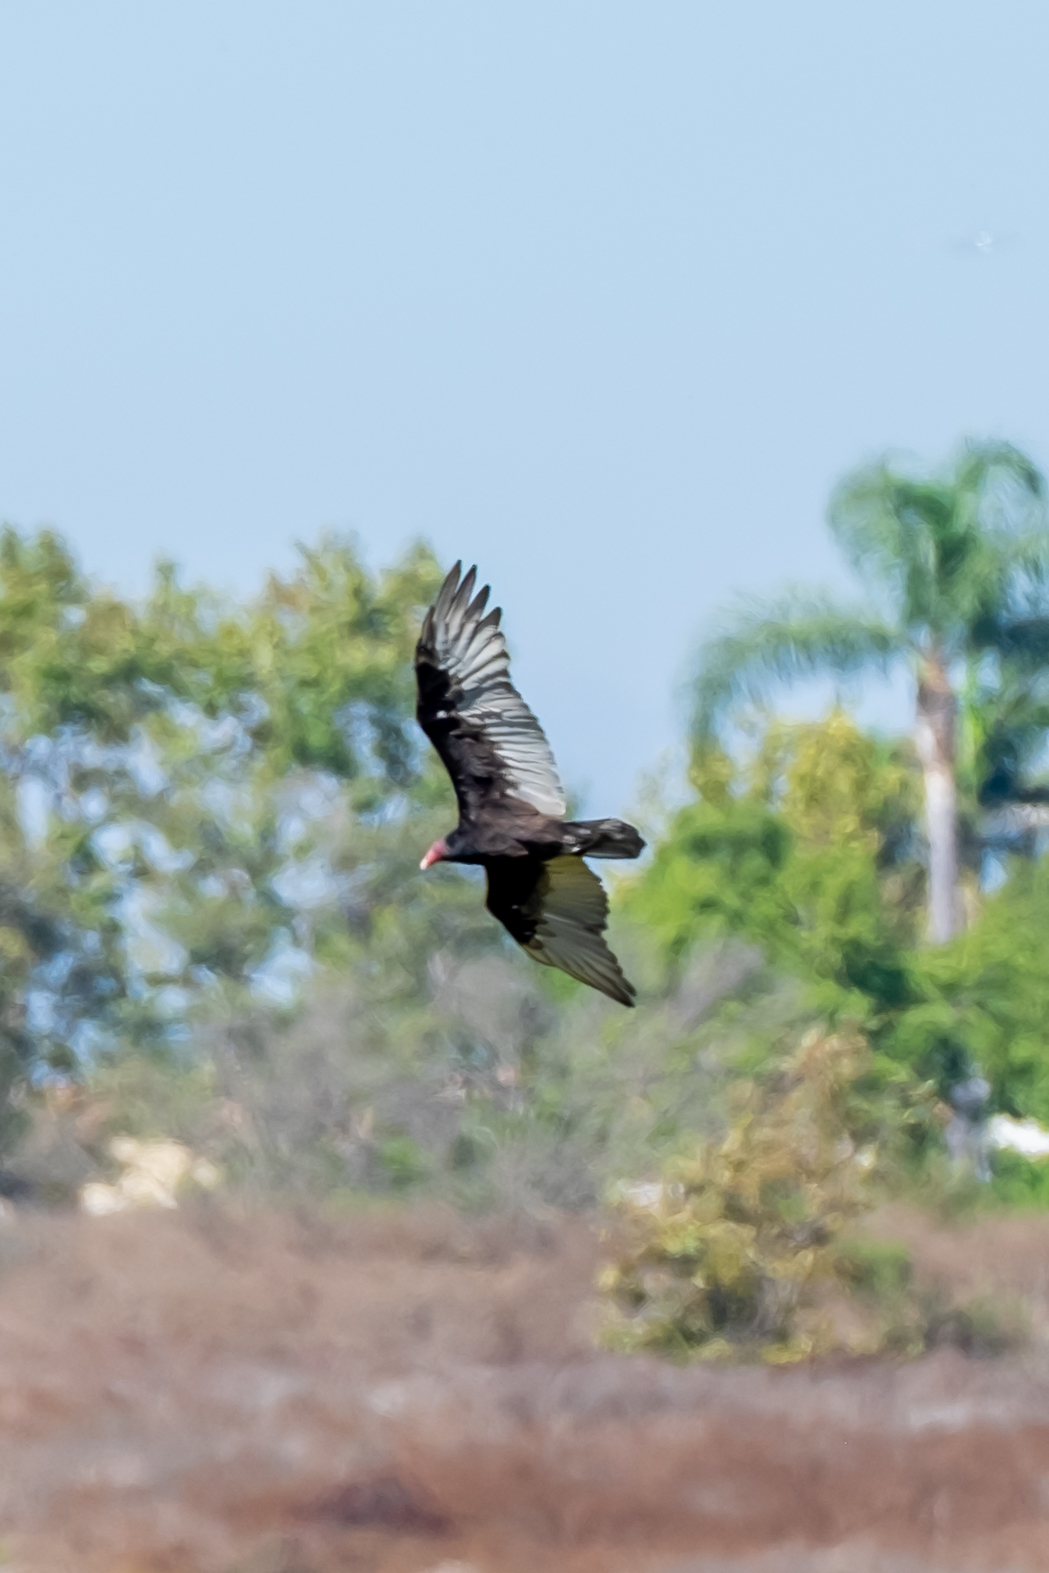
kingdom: Animalia
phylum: Chordata
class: Aves
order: Accipitriformes
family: Cathartidae
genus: Cathartes
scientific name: Cathartes aura
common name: Turkey vulture
